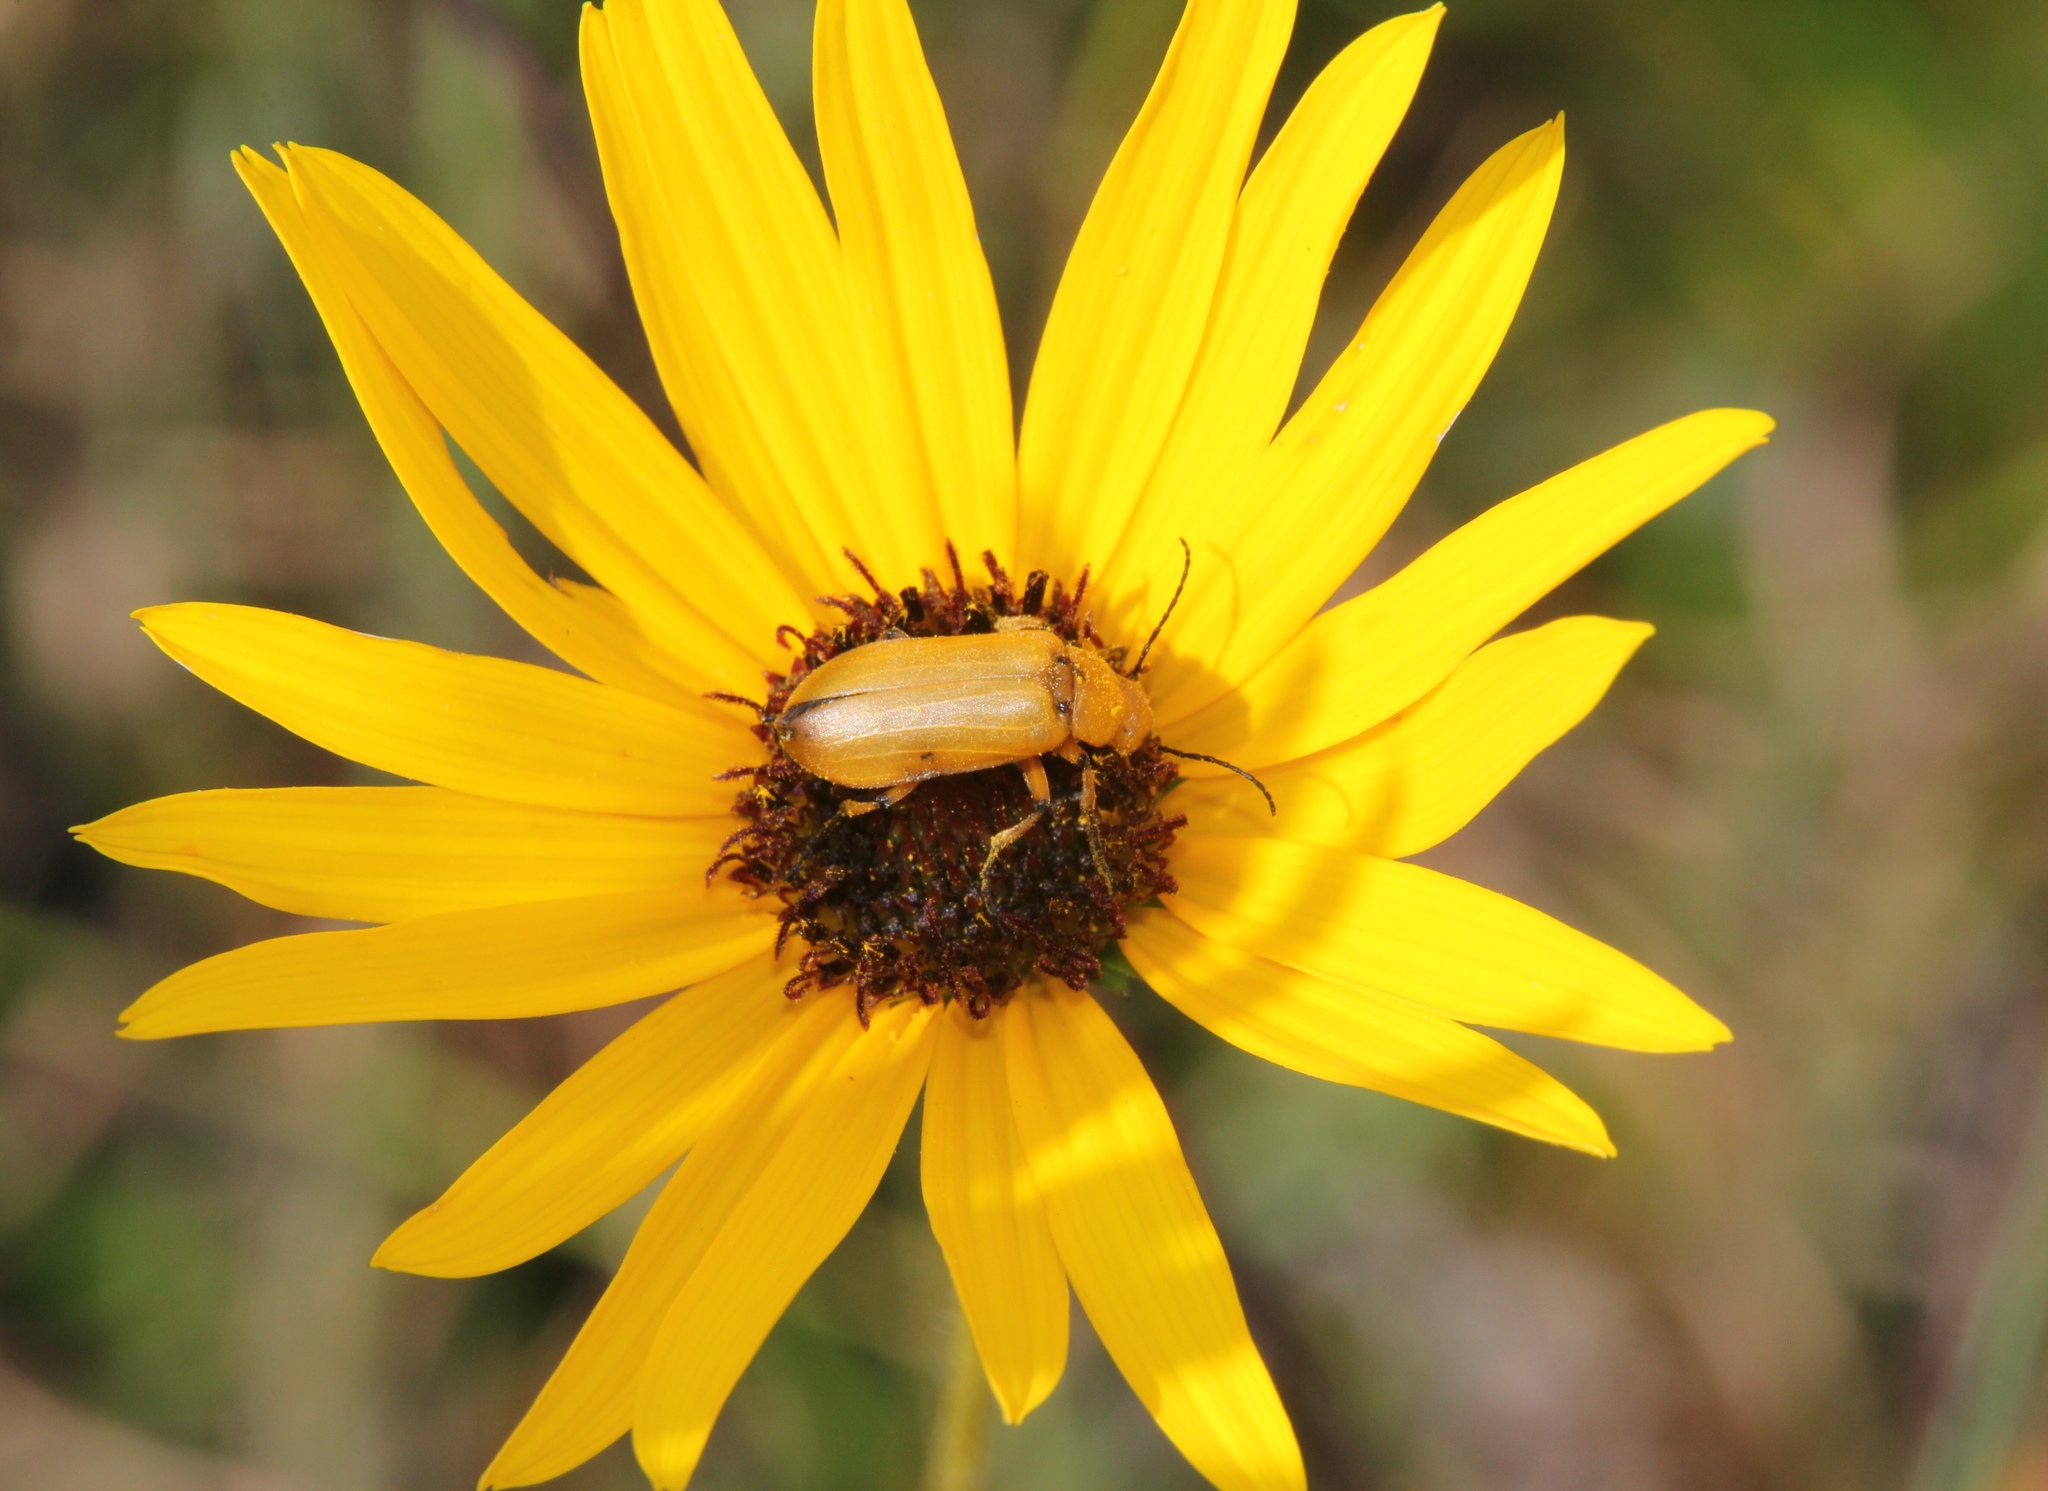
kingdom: Animalia
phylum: Arthropoda
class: Insecta
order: Coleoptera
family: Meloidae
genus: Nemognatha
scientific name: Nemognatha punctulata
